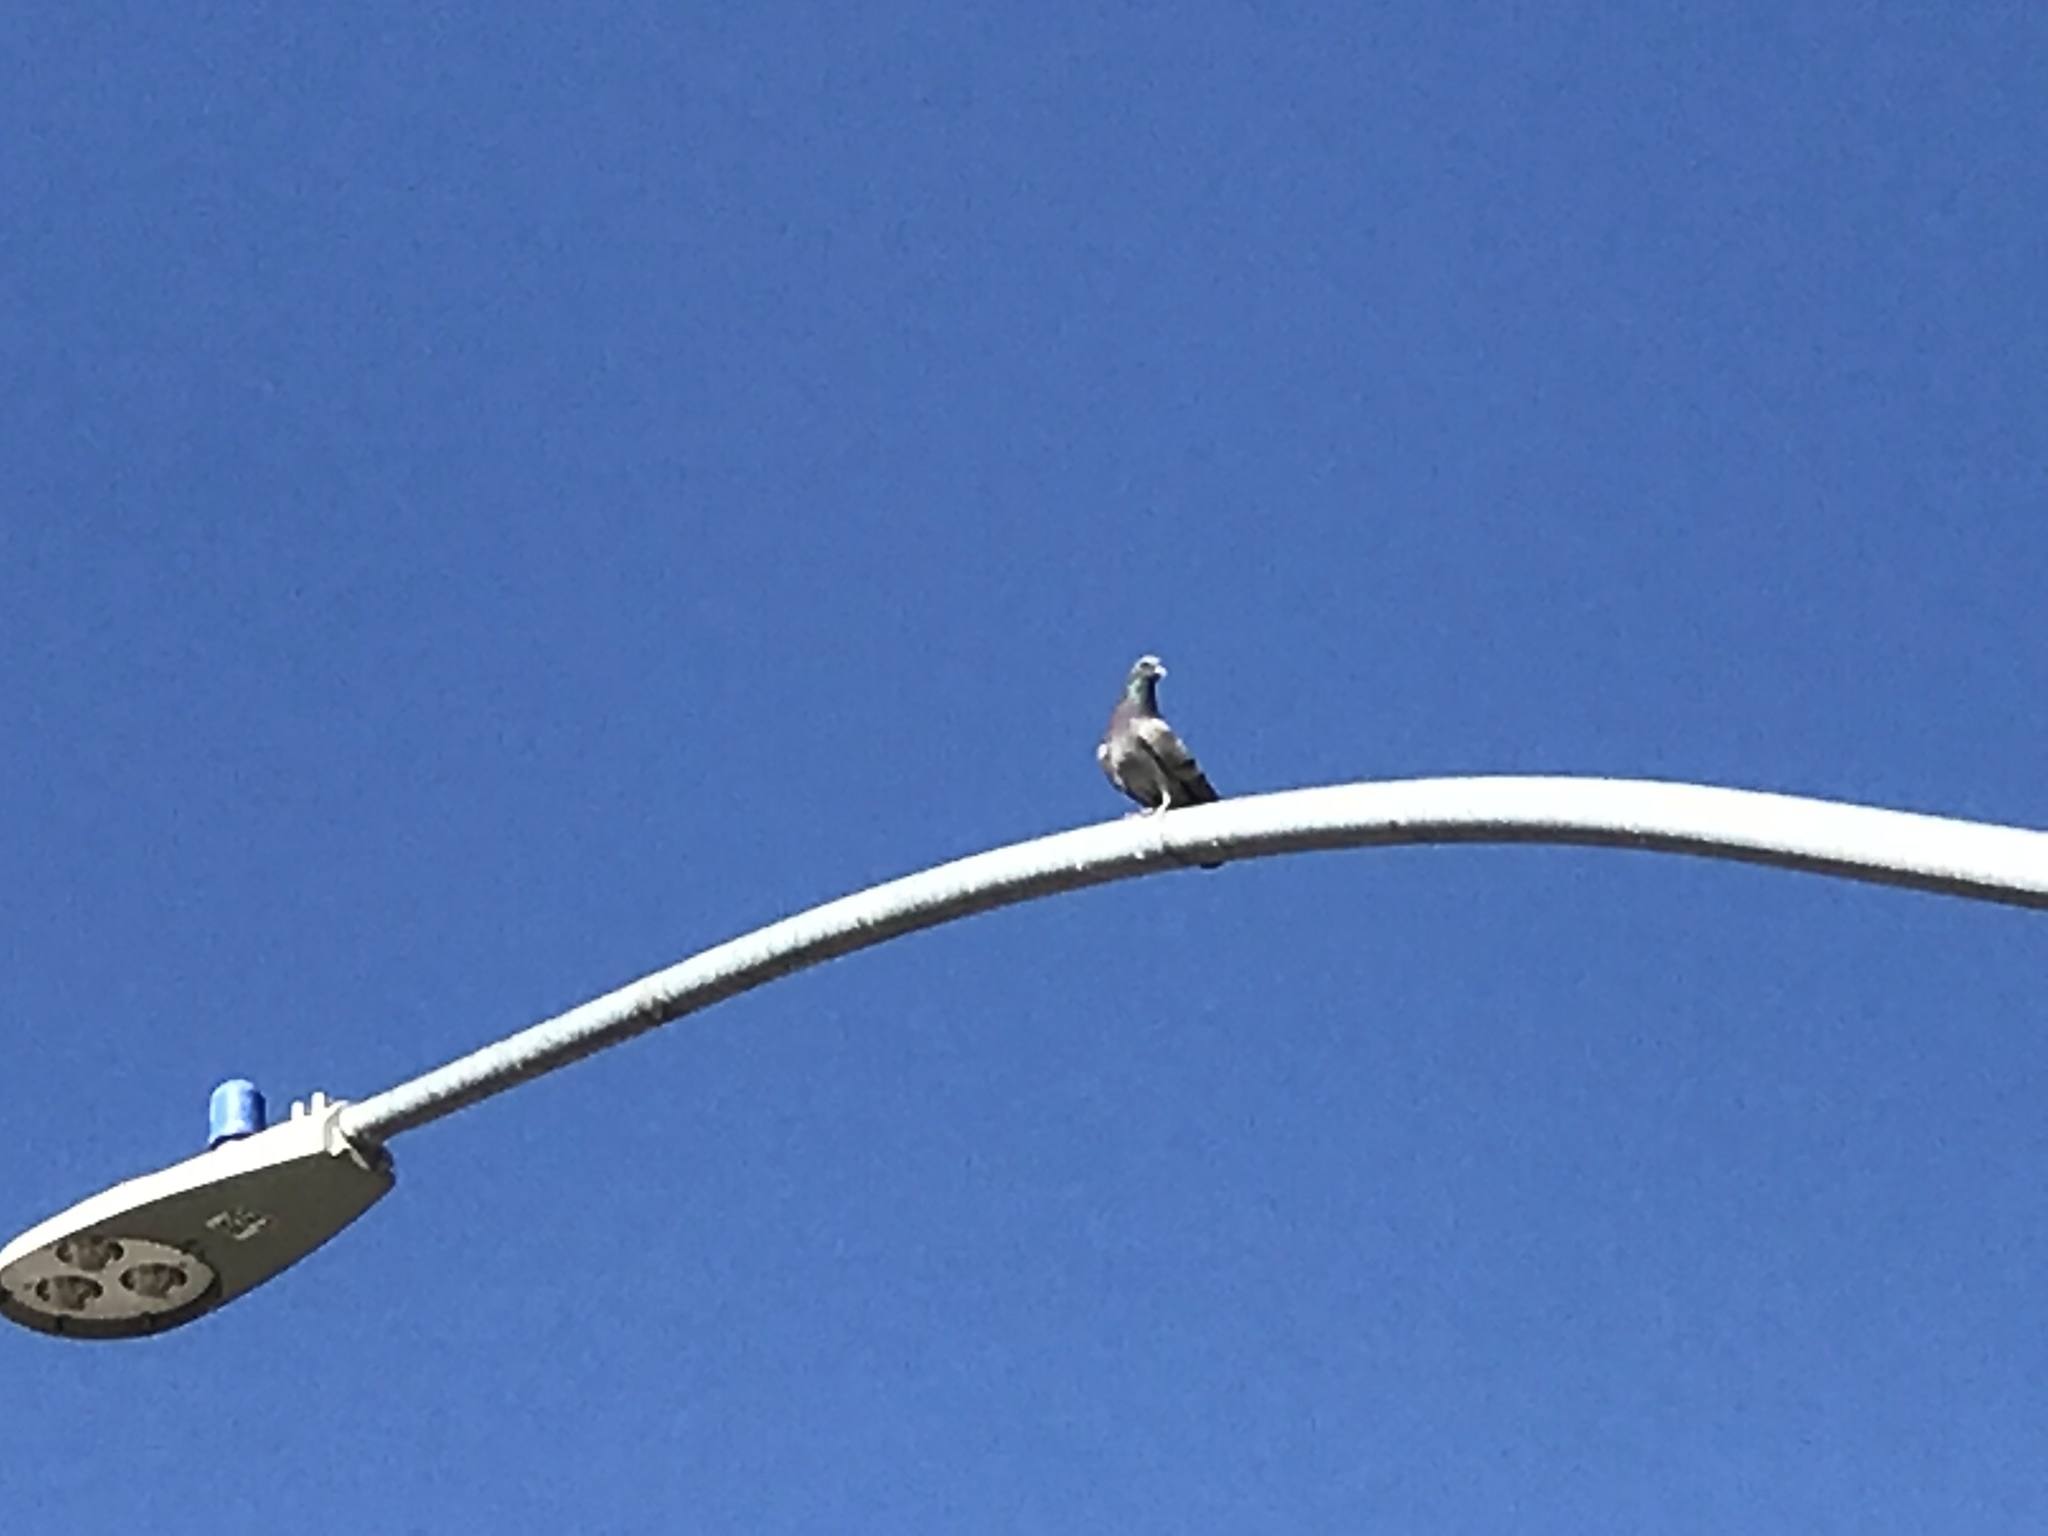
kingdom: Animalia
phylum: Chordata
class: Aves
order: Columbiformes
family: Columbidae
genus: Columba
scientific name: Columba livia
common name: Rock pigeon
